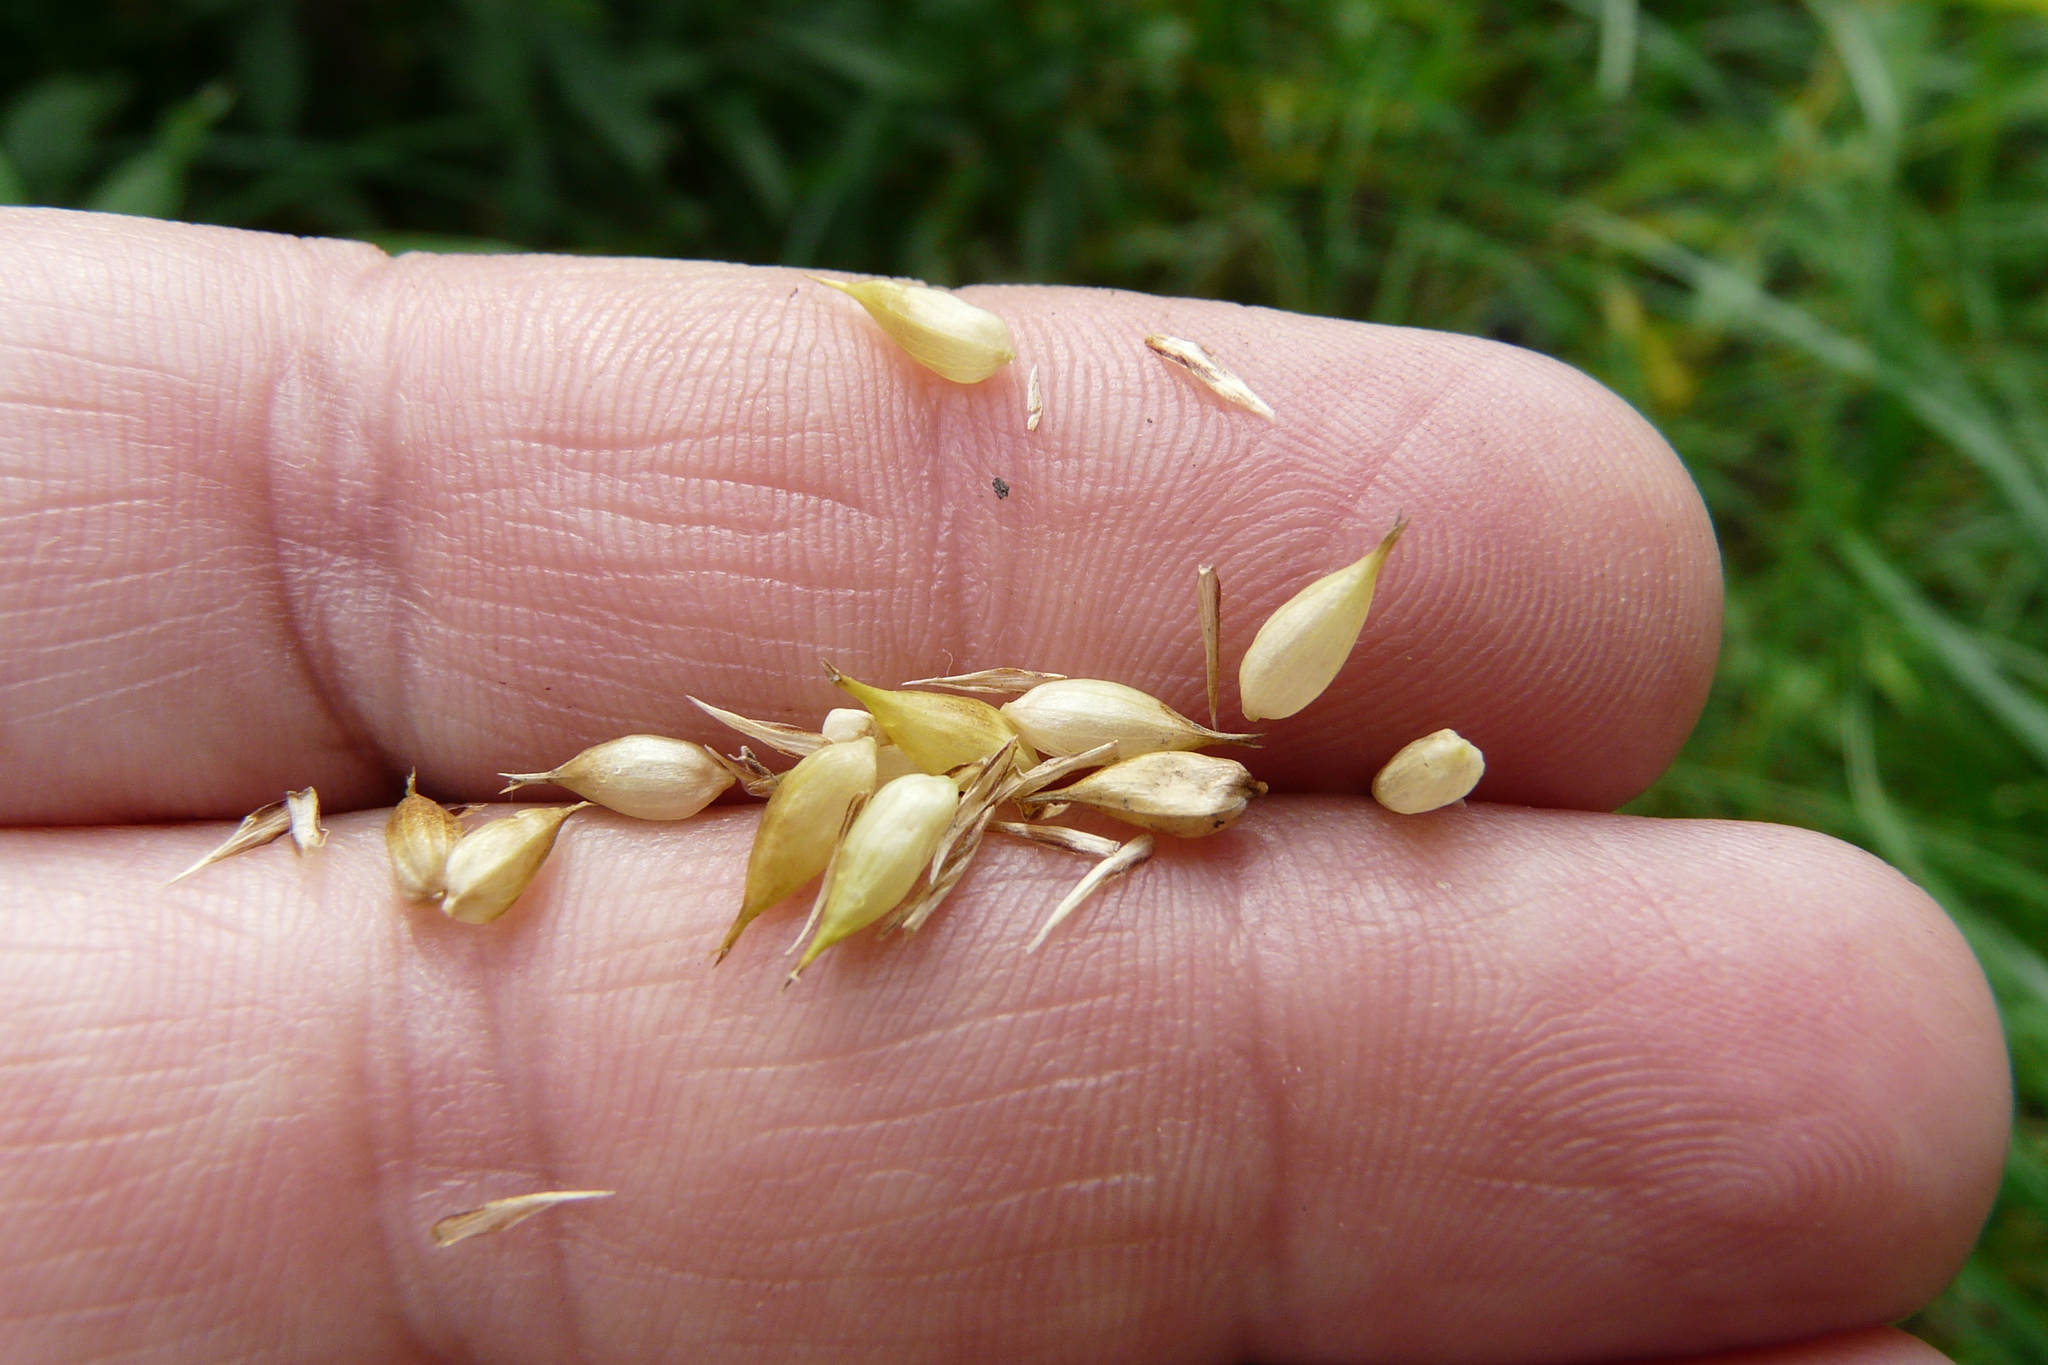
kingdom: Plantae
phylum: Tracheophyta
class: Liliopsida
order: Poales
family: Cyperaceae
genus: Carex
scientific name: Carex vesicaria
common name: Bladder-sedge
